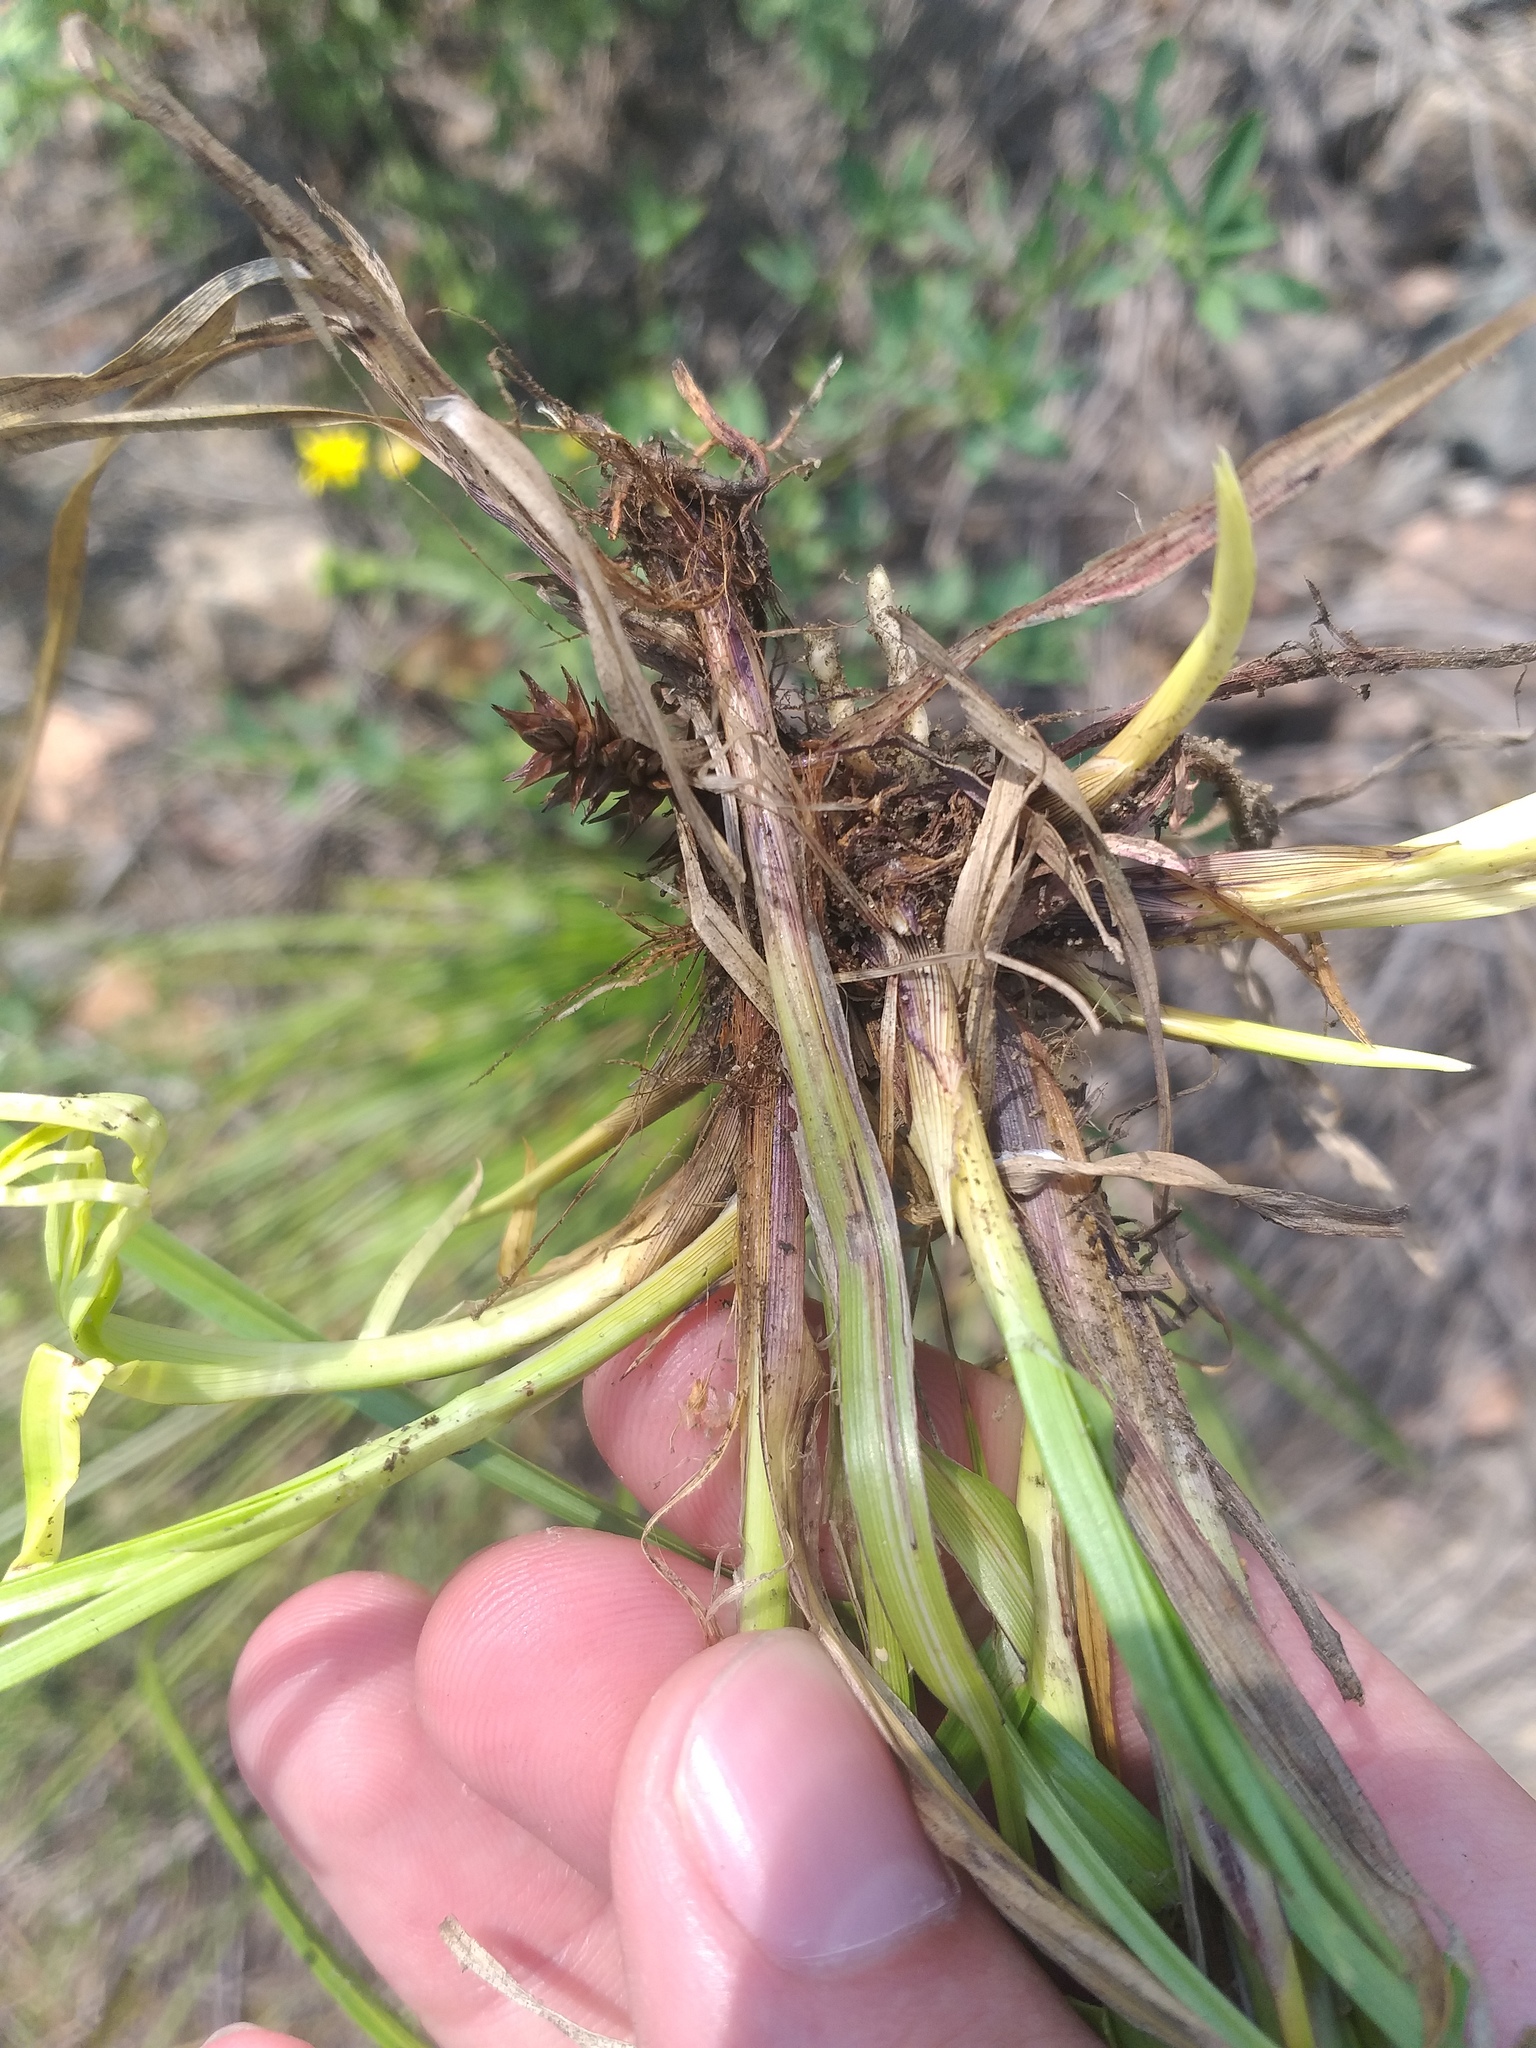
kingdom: Plantae
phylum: Tracheophyta
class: Liliopsida
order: Poales
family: Cyperaceae
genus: Carex
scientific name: Carex spicata
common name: Spiked sedge
